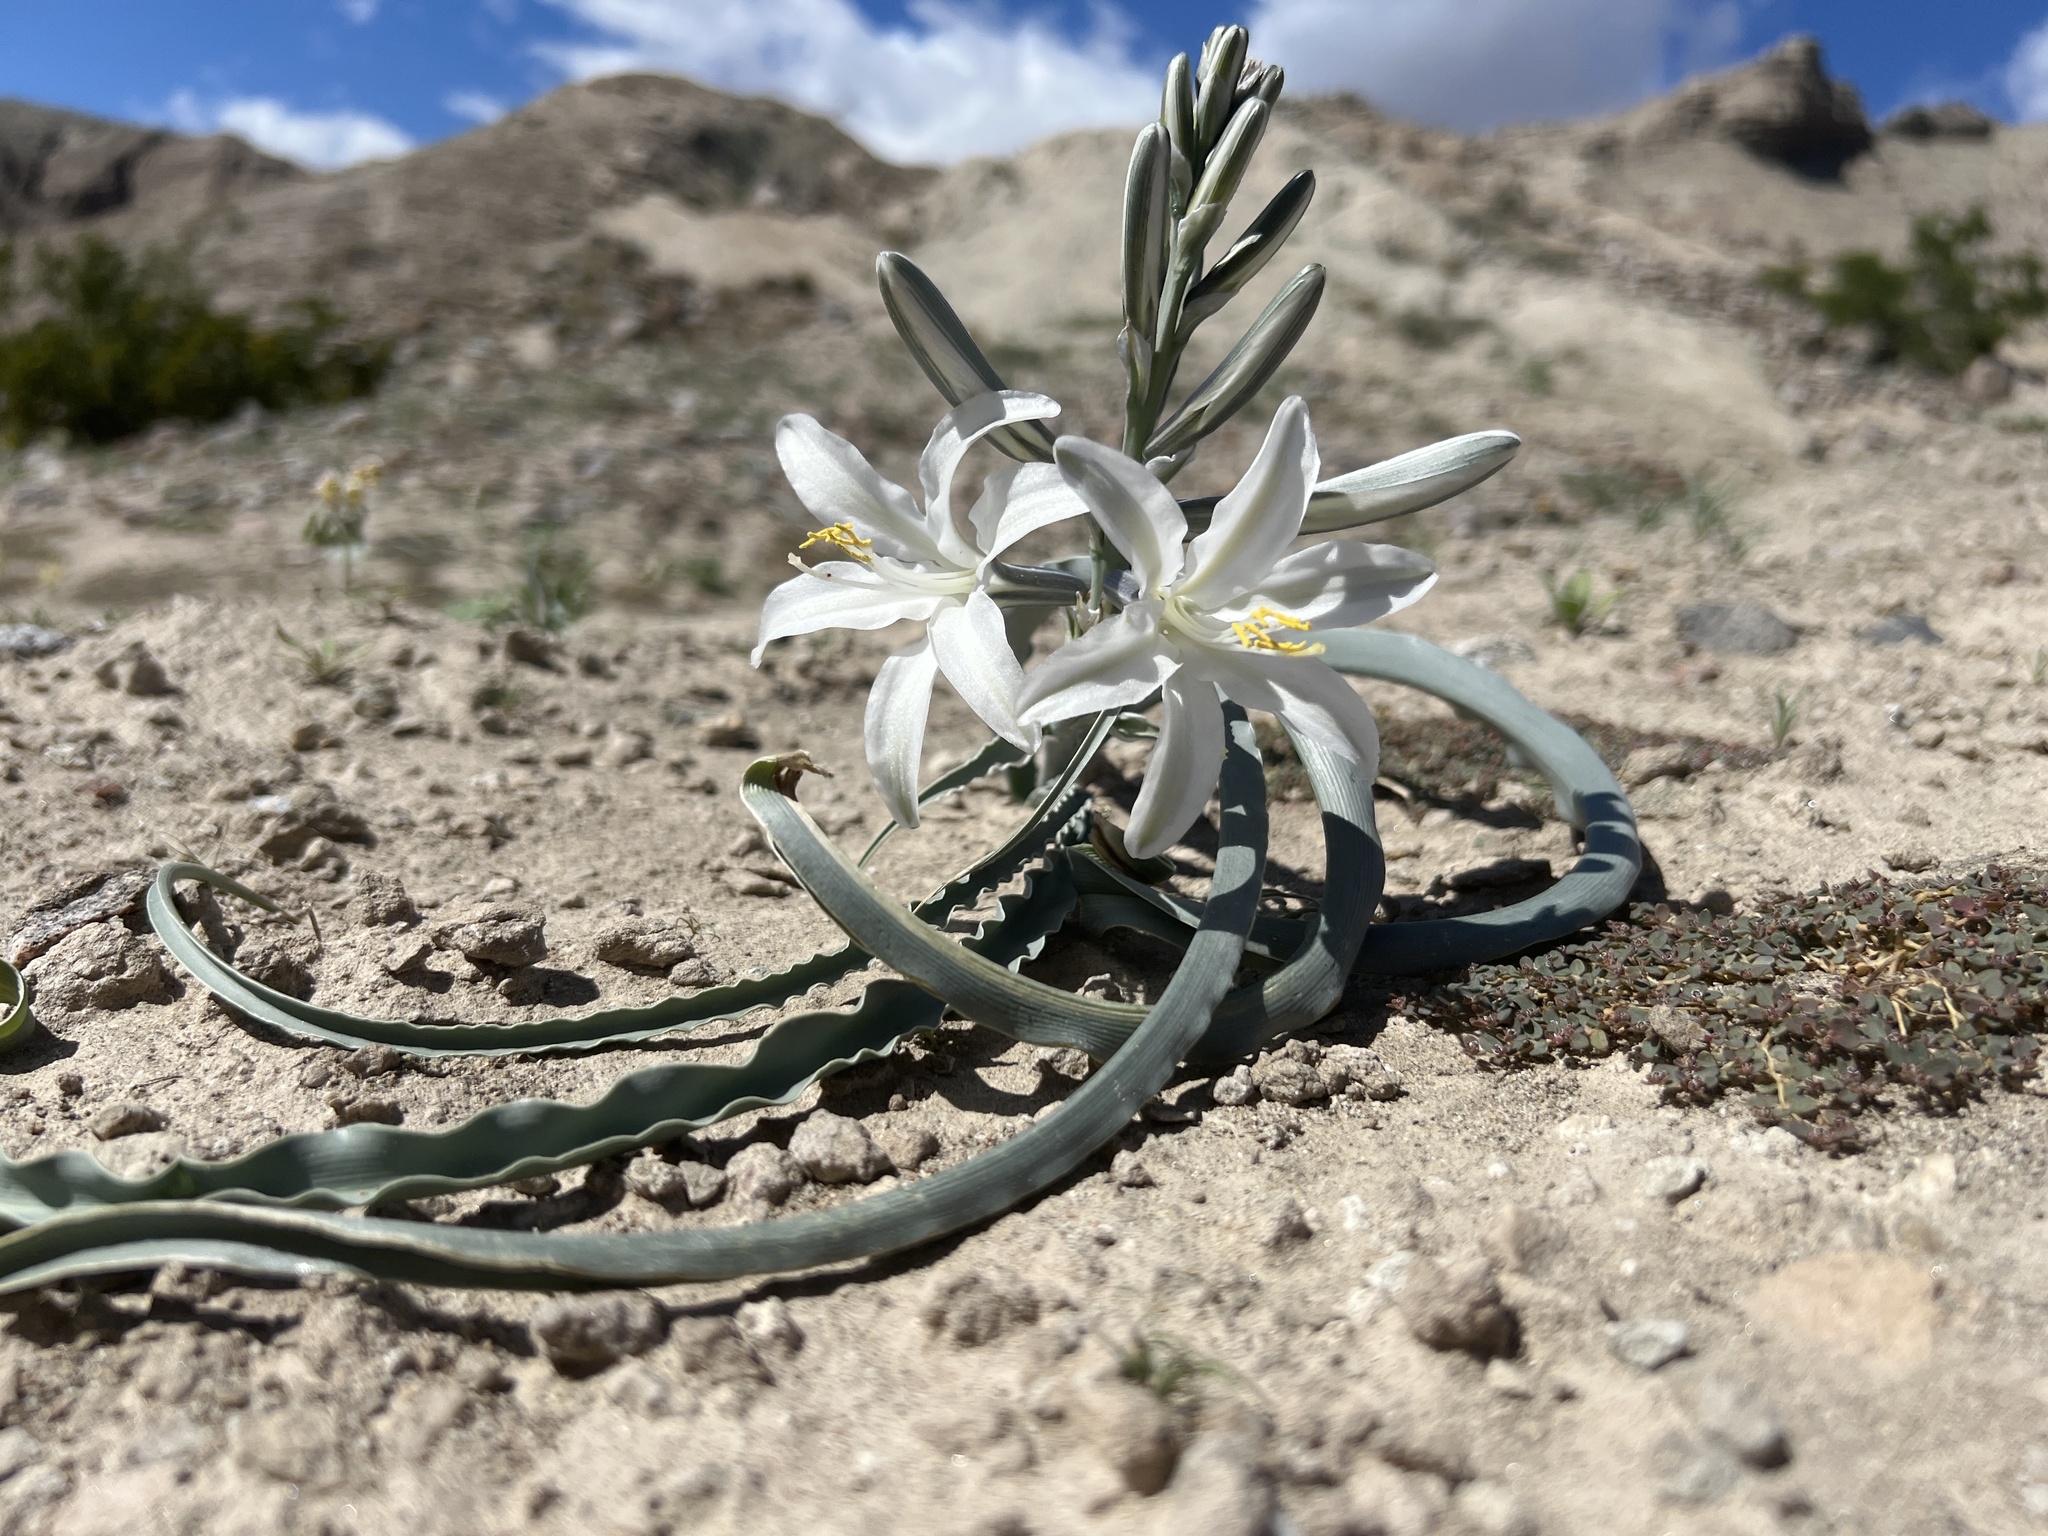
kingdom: Plantae
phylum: Tracheophyta
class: Liliopsida
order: Asparagales
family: Asparagaceae
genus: Hesperocallis
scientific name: Hesperocallis undulata
